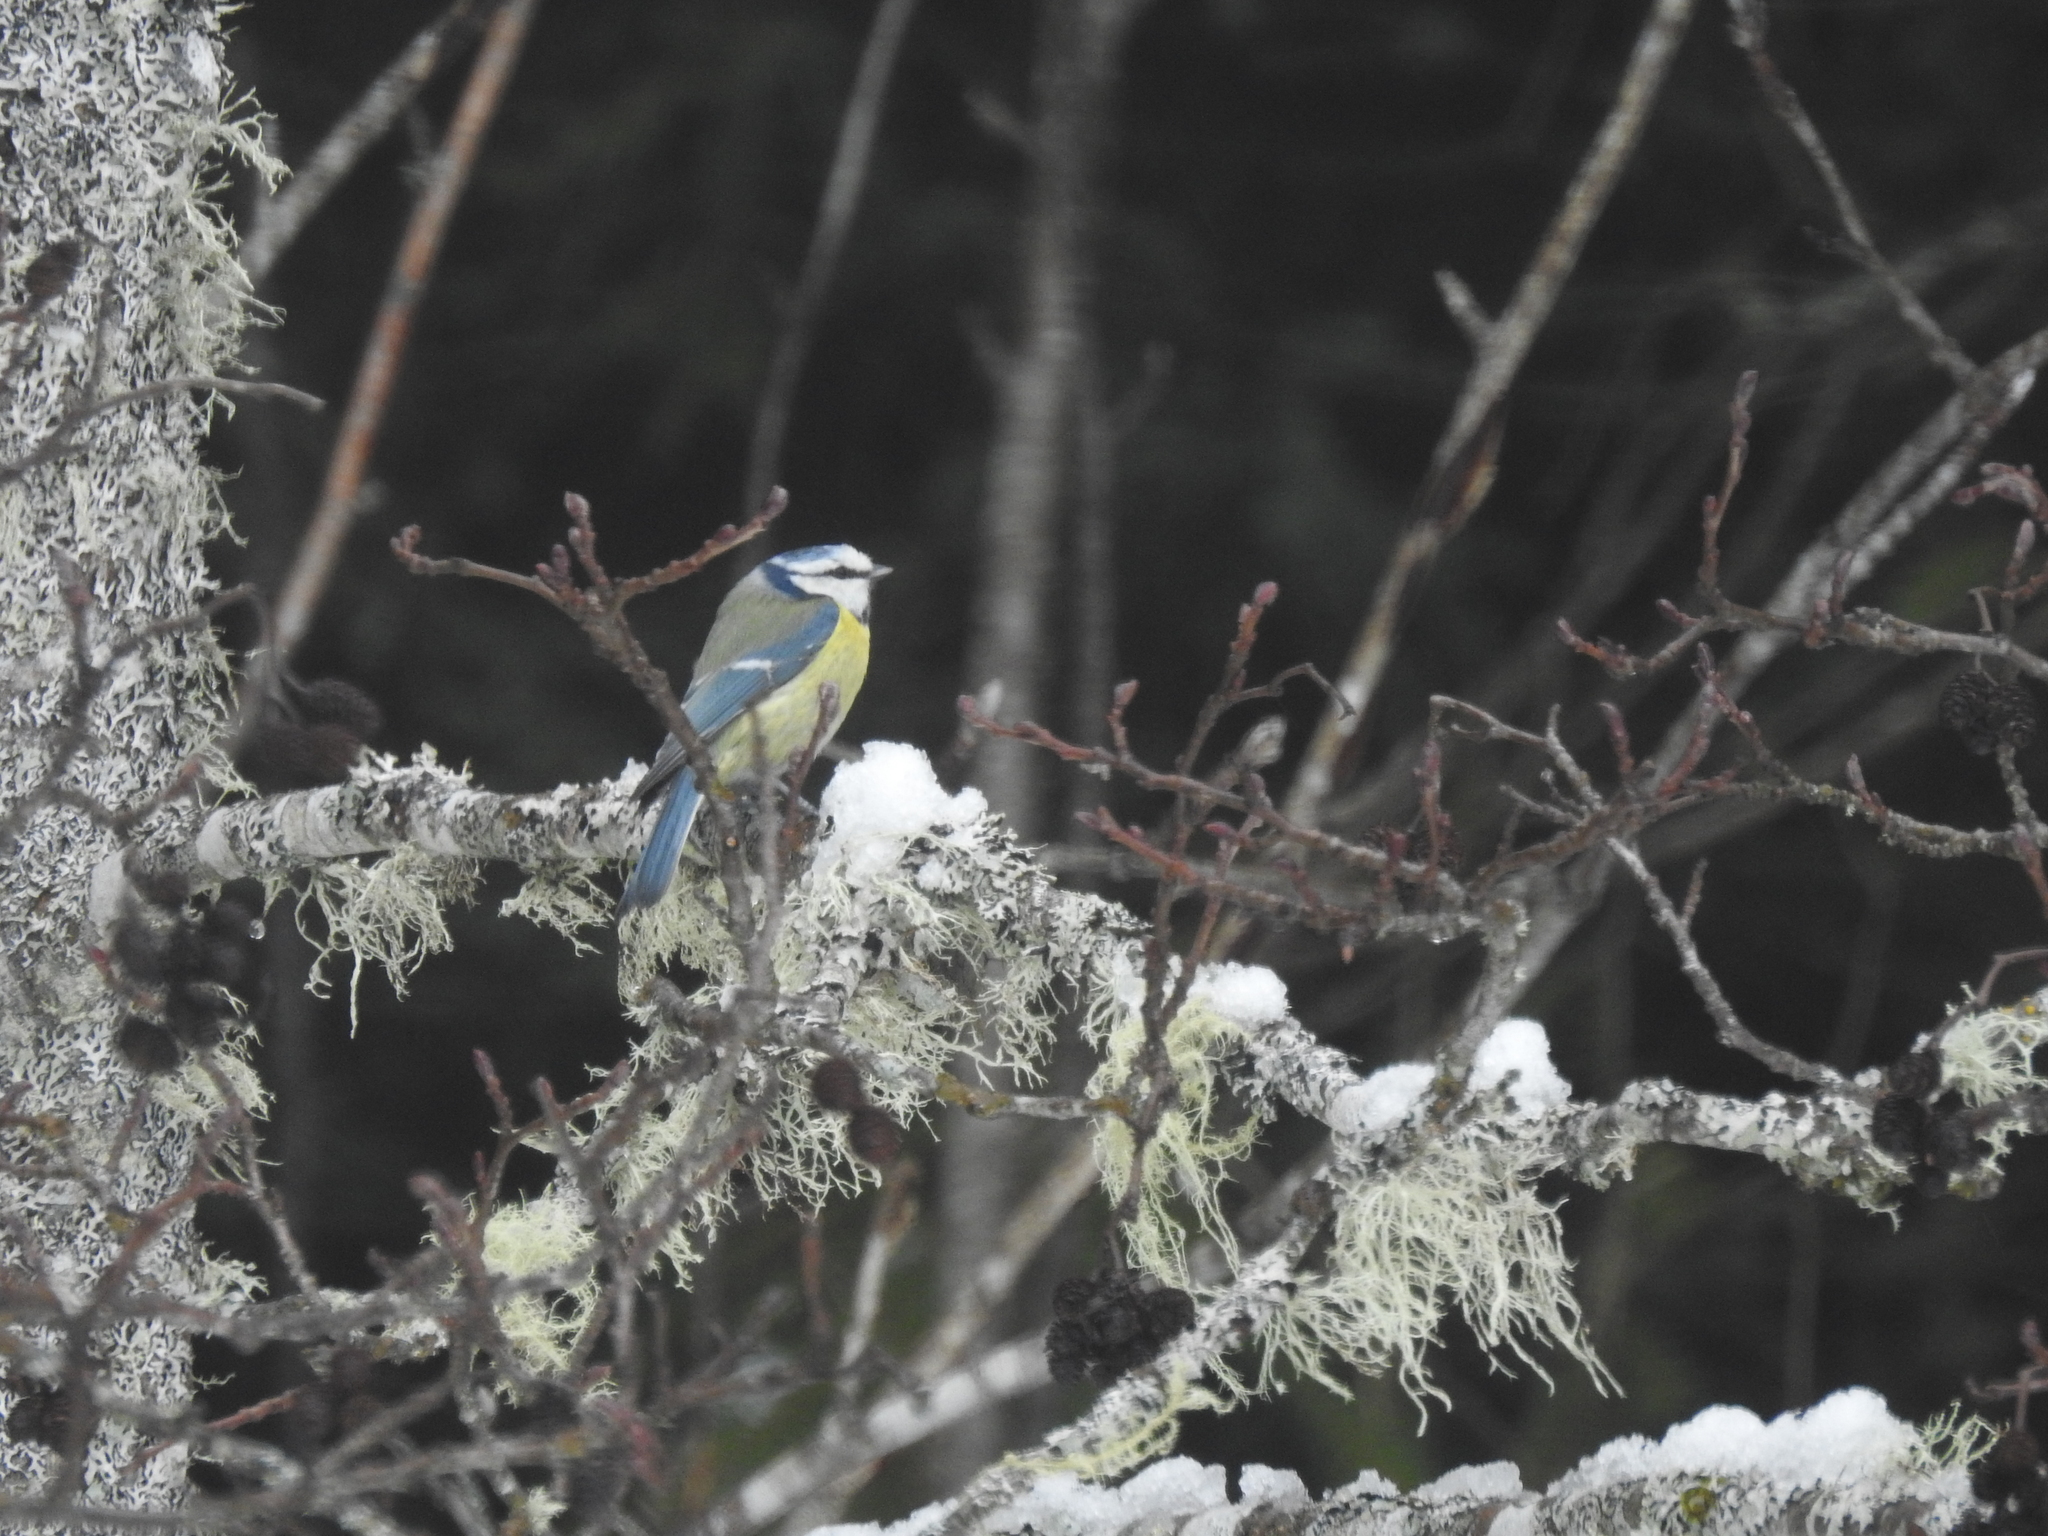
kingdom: Animalia
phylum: Chordata
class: Aves
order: Passeriformes
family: Paridae
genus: Cyanistes
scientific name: Cyanistes caeruleus
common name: Eurasian blue tit
